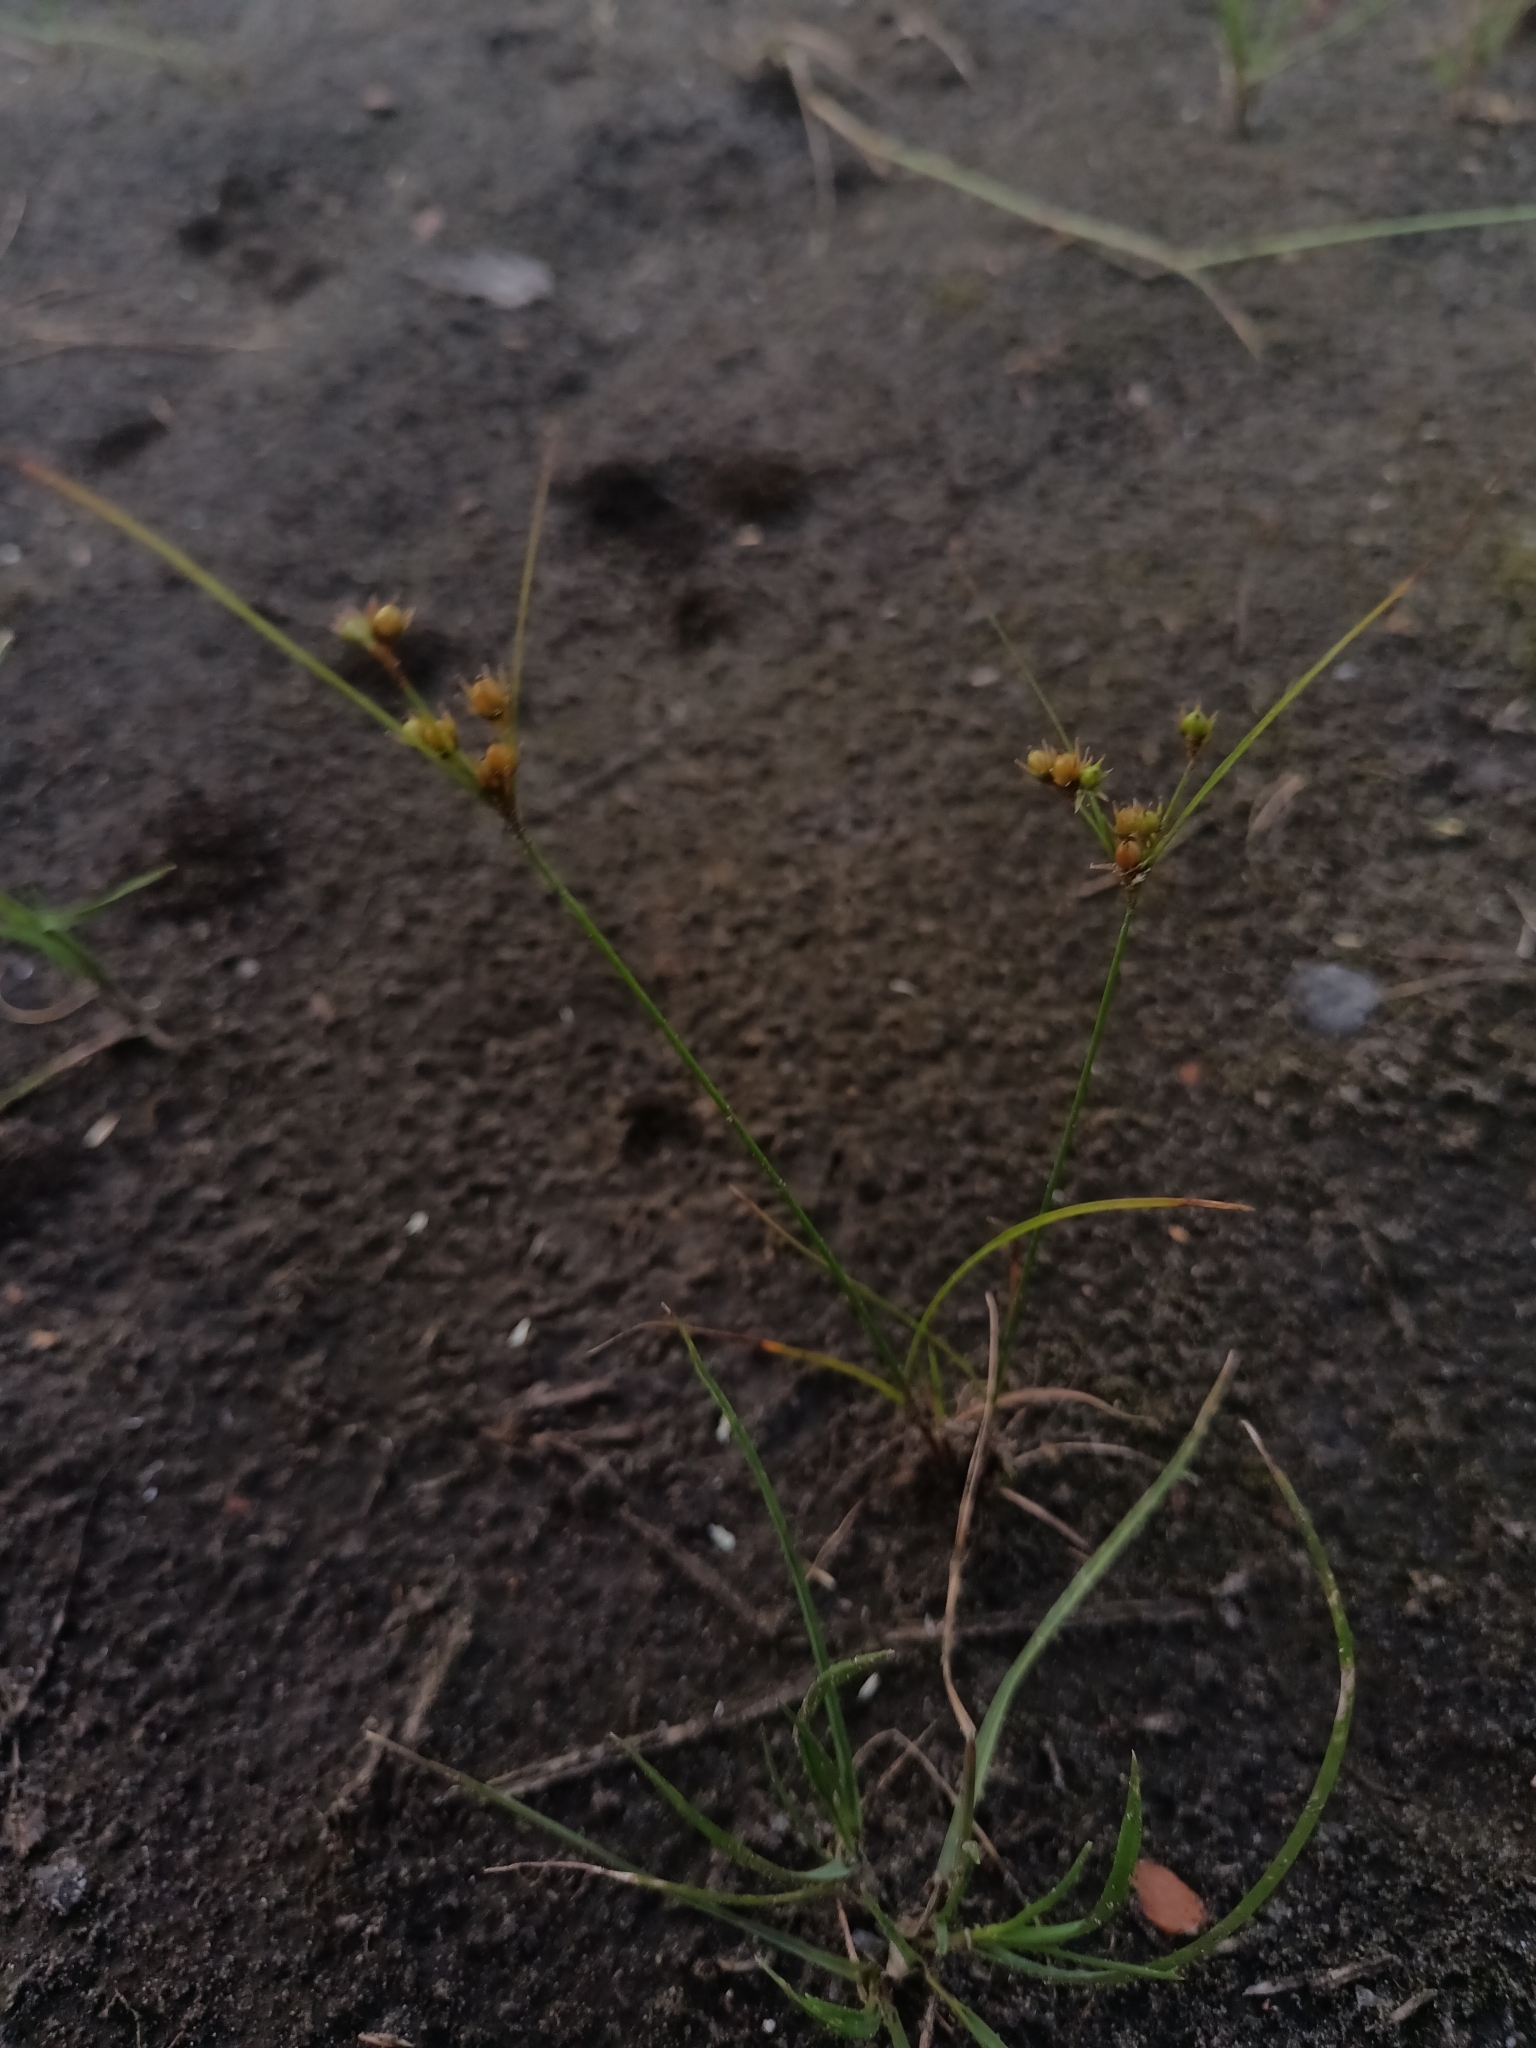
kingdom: Plantae
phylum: Tracheophyta
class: Liliopsida
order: Poales
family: Juncaceae
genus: Juncus
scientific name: Juncus tenuis
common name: Slender rush
